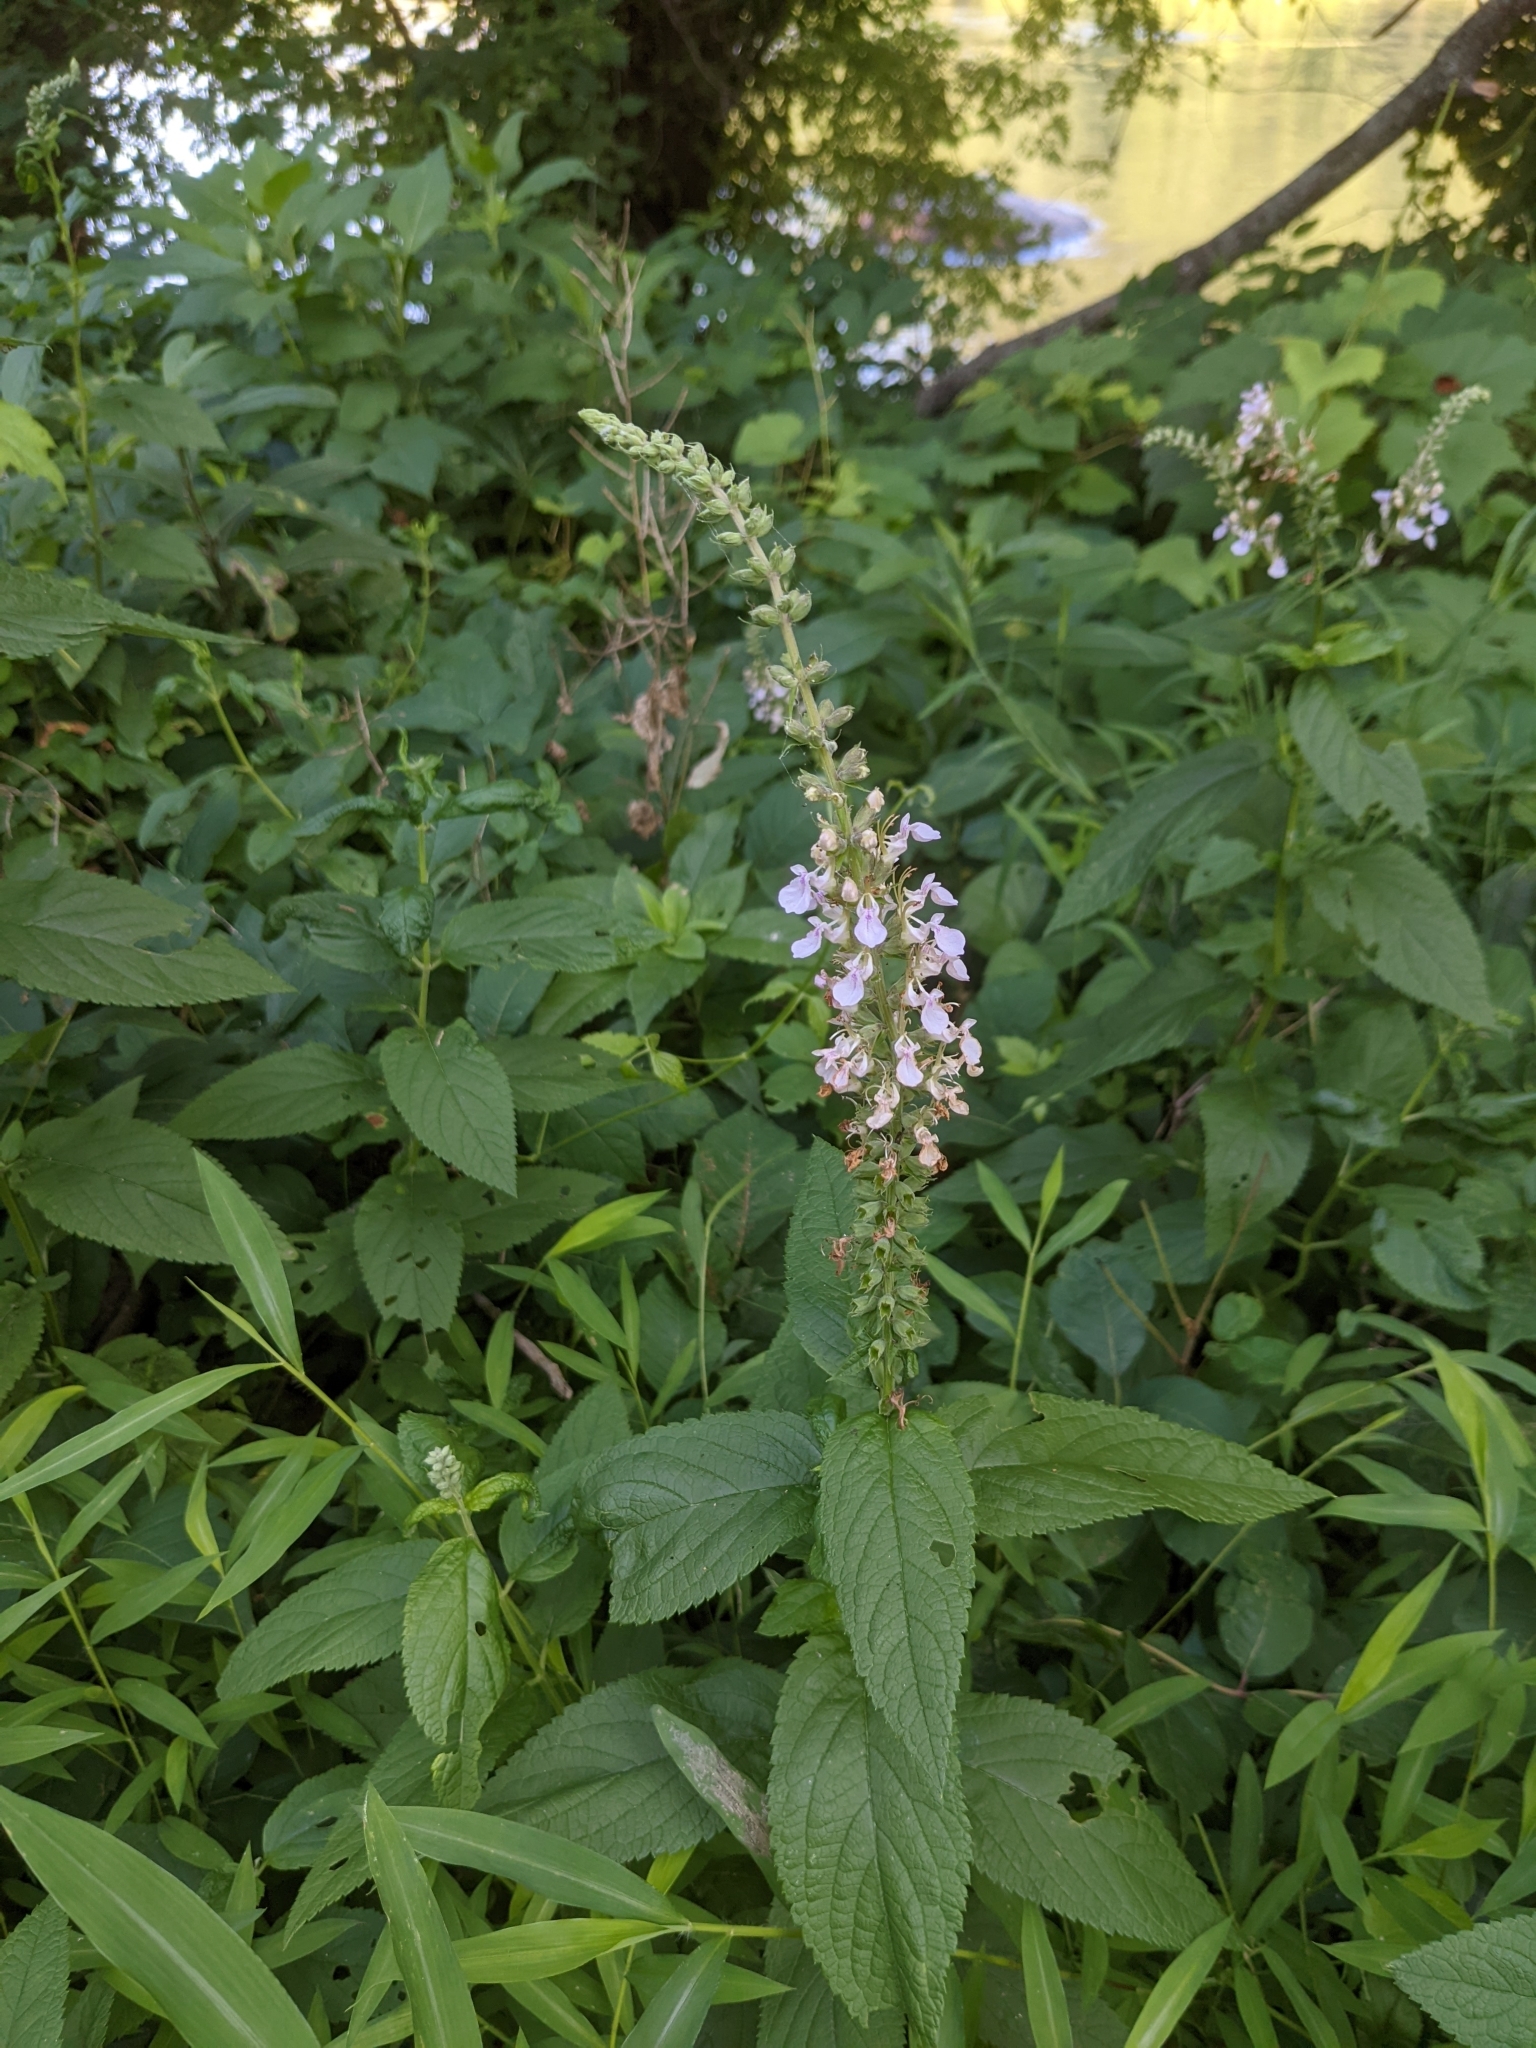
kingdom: Plantae
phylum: Tracheophyta
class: Magnoliopsida
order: Lamiales
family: Lamiaceae
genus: Teucrium
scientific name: Teucrium canadense
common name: American germander
